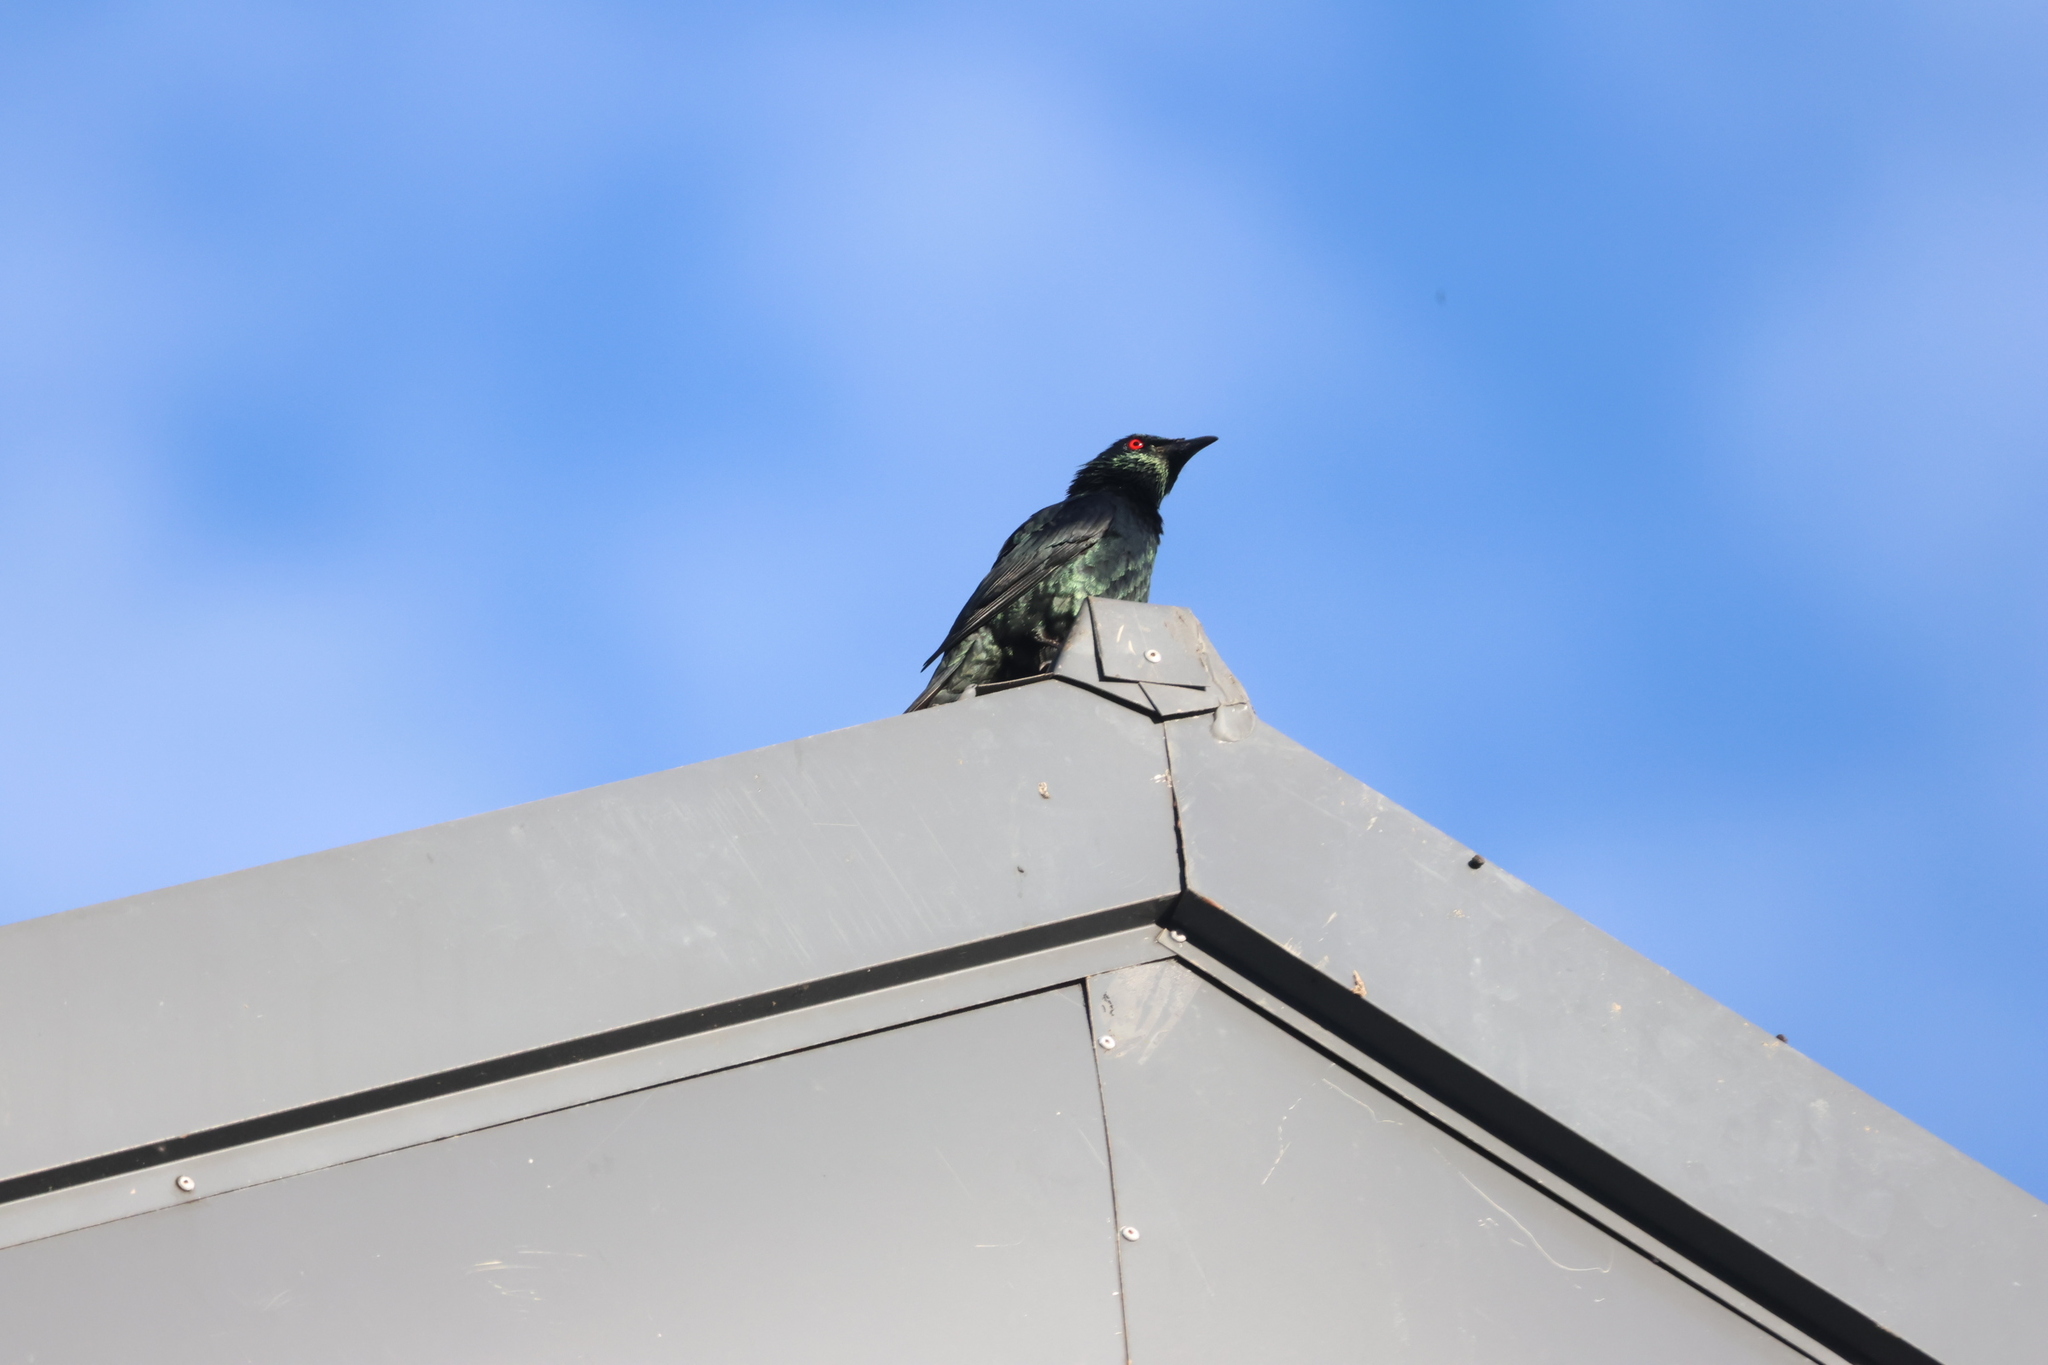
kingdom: Animalia
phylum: Chordata
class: Aves
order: Passeriformes
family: Sturnidae
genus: Aplonis
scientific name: Aplonis panayensis
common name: Asian glossy starling
